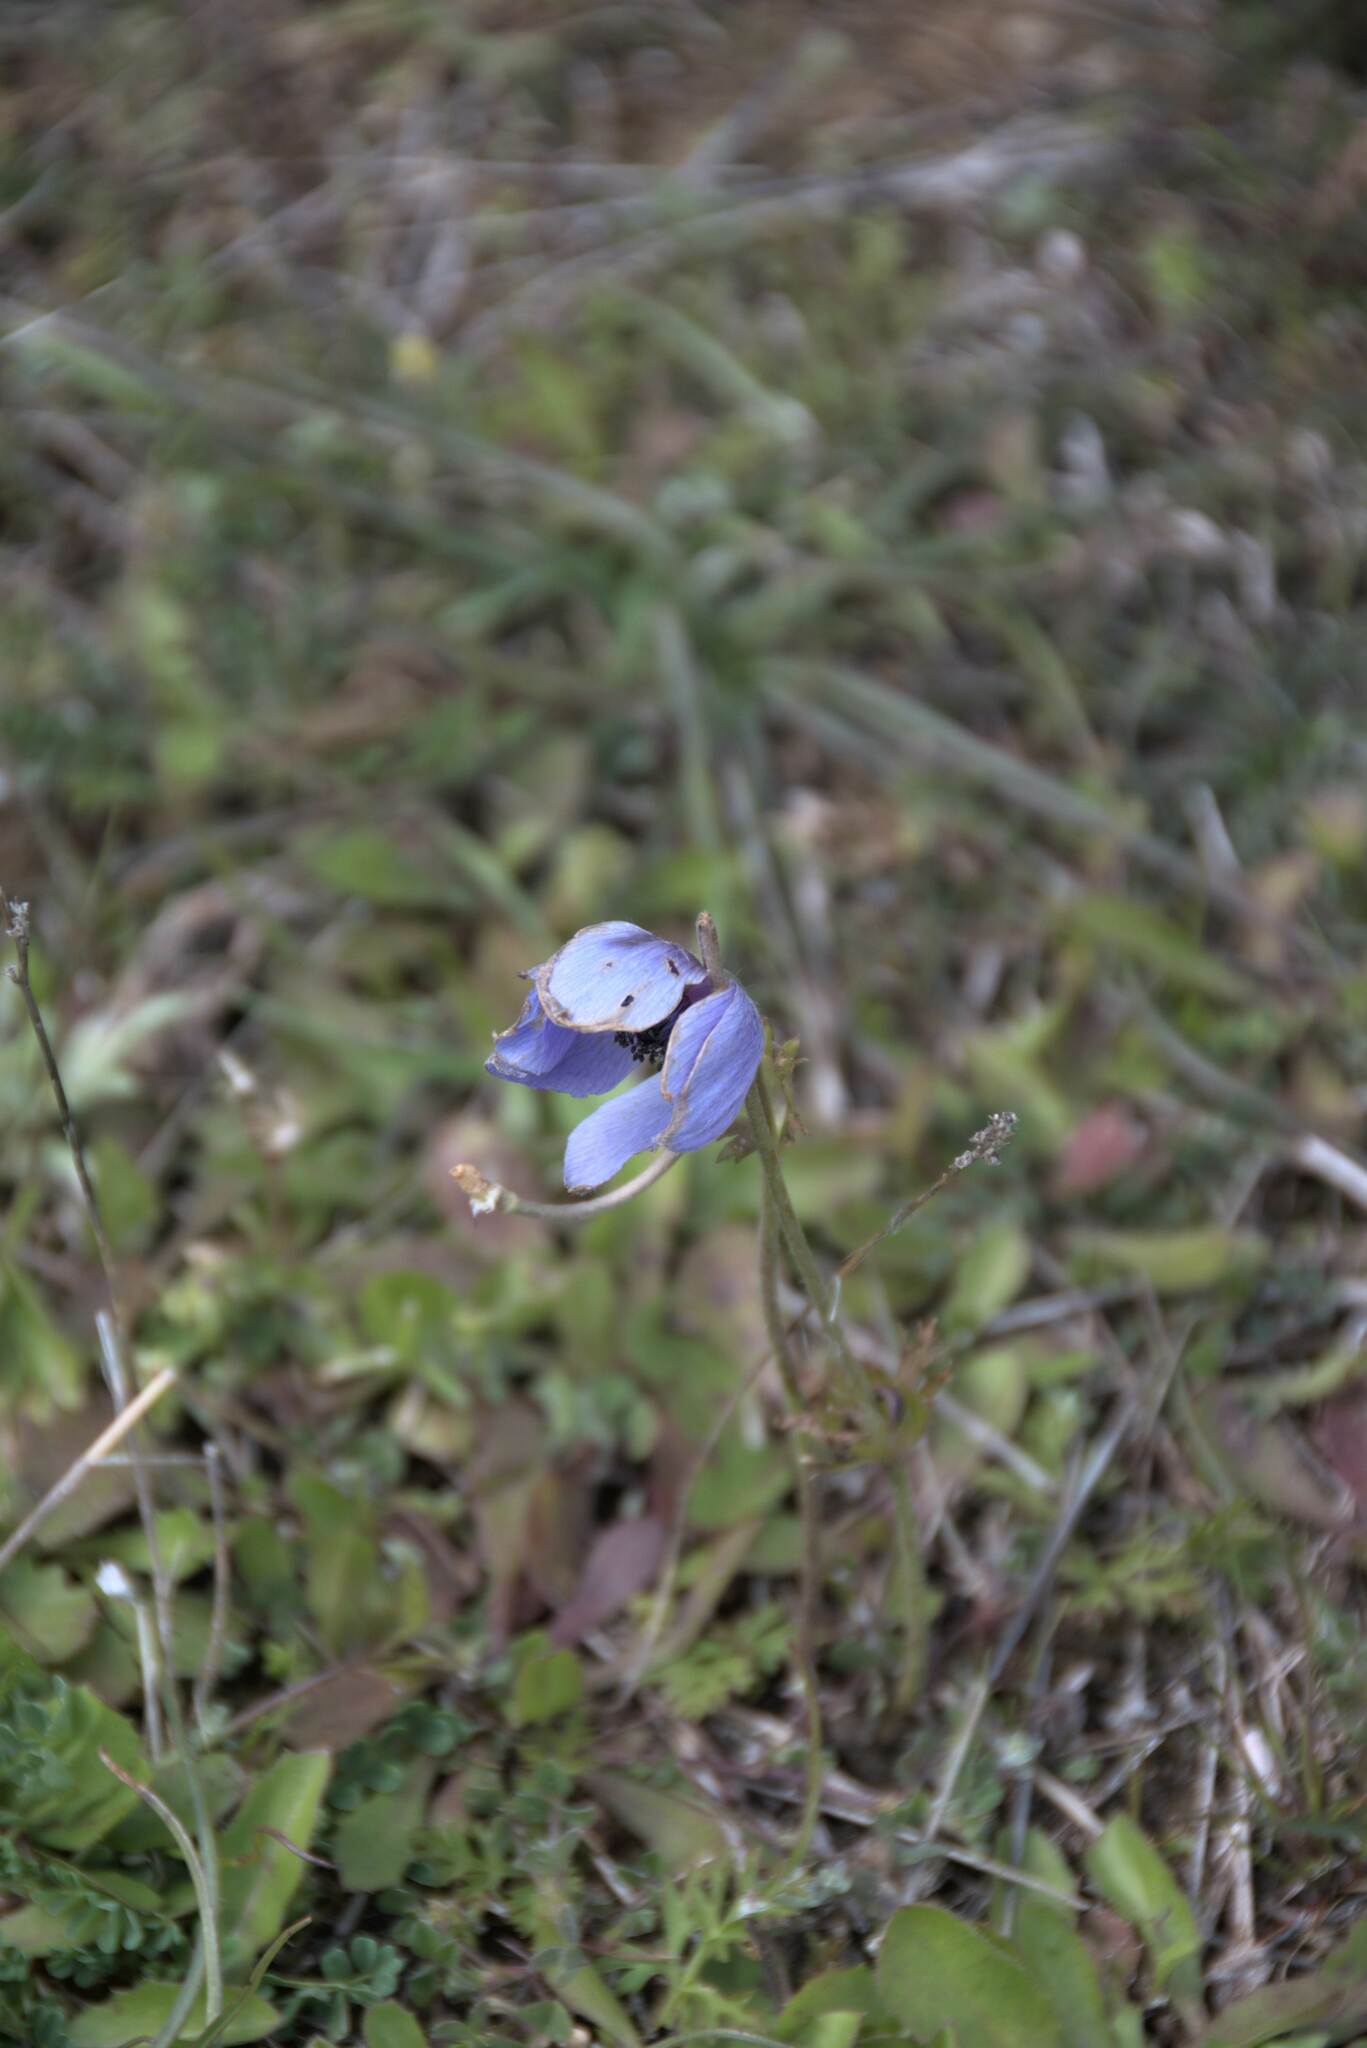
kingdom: Plantae
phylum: Tracheophyta
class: Magnoliopsida
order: Ranunculales
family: Ranunculaceae
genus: Anemone
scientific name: Anemone coronaria
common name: Poppy anemone
